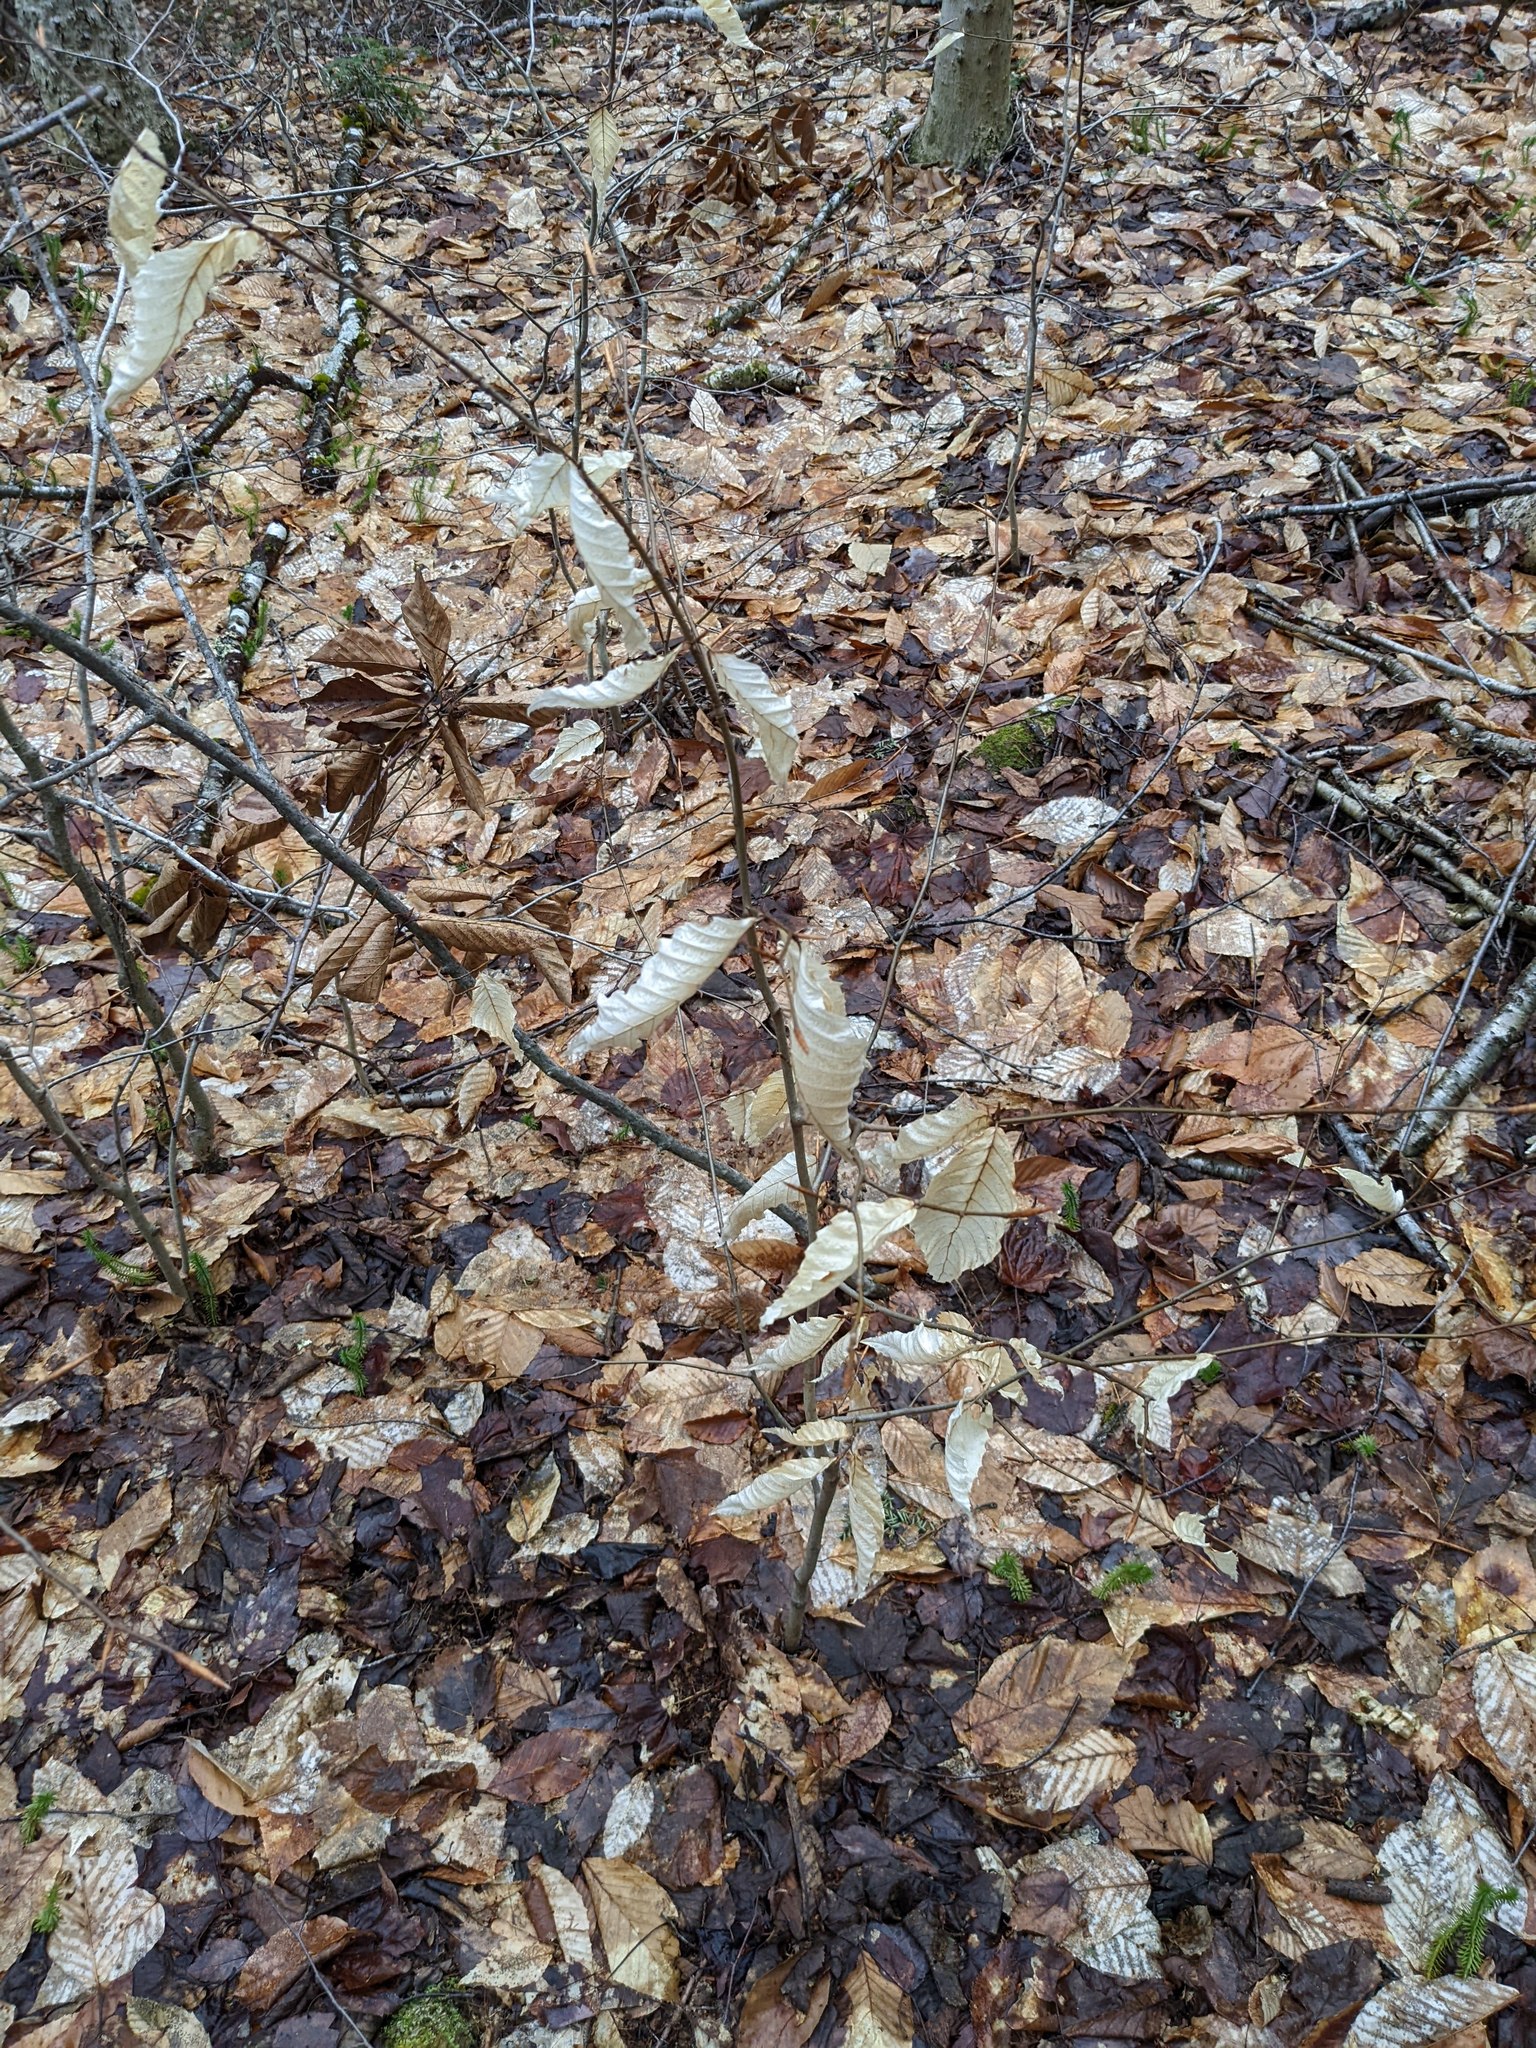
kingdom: Plantae
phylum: Tracheophyta
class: Magnoliopsida
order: Fagales
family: Fagaceae
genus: Fagus
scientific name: Fagus grandifolia
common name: American beech
